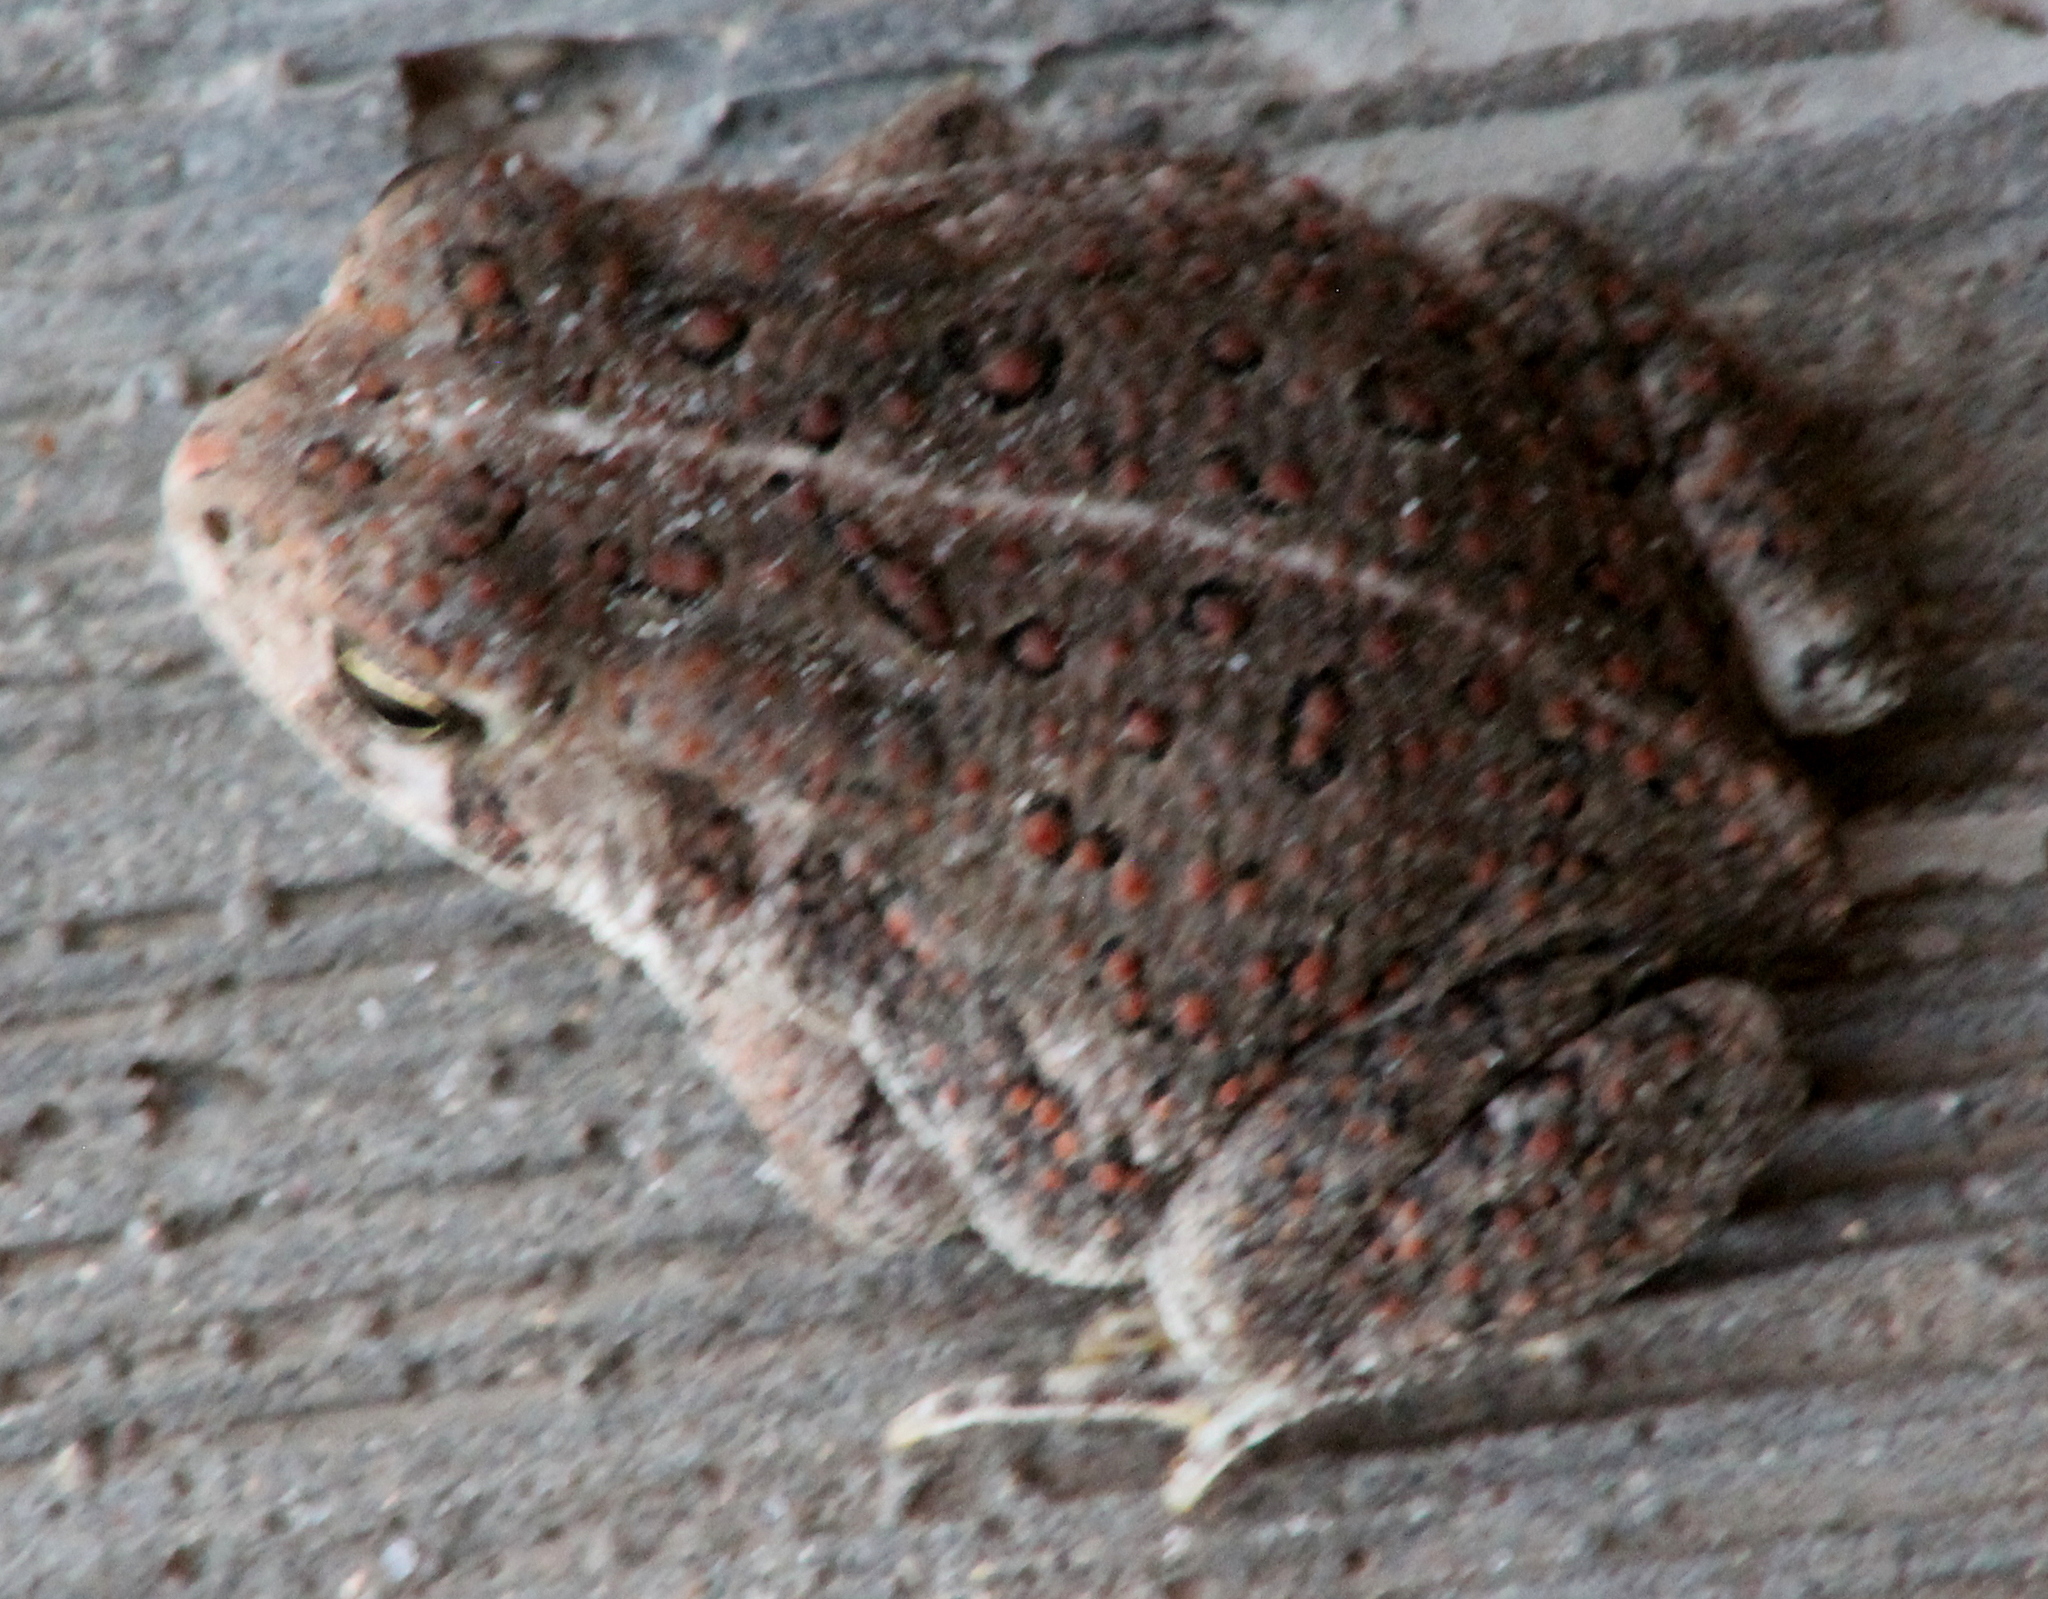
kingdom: Animalia
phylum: Chordata
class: Amphibia
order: Anura
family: Bufonidae
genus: Anaxyrus
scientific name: Anaxyrus woodhousii
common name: Woodhouse's toad
